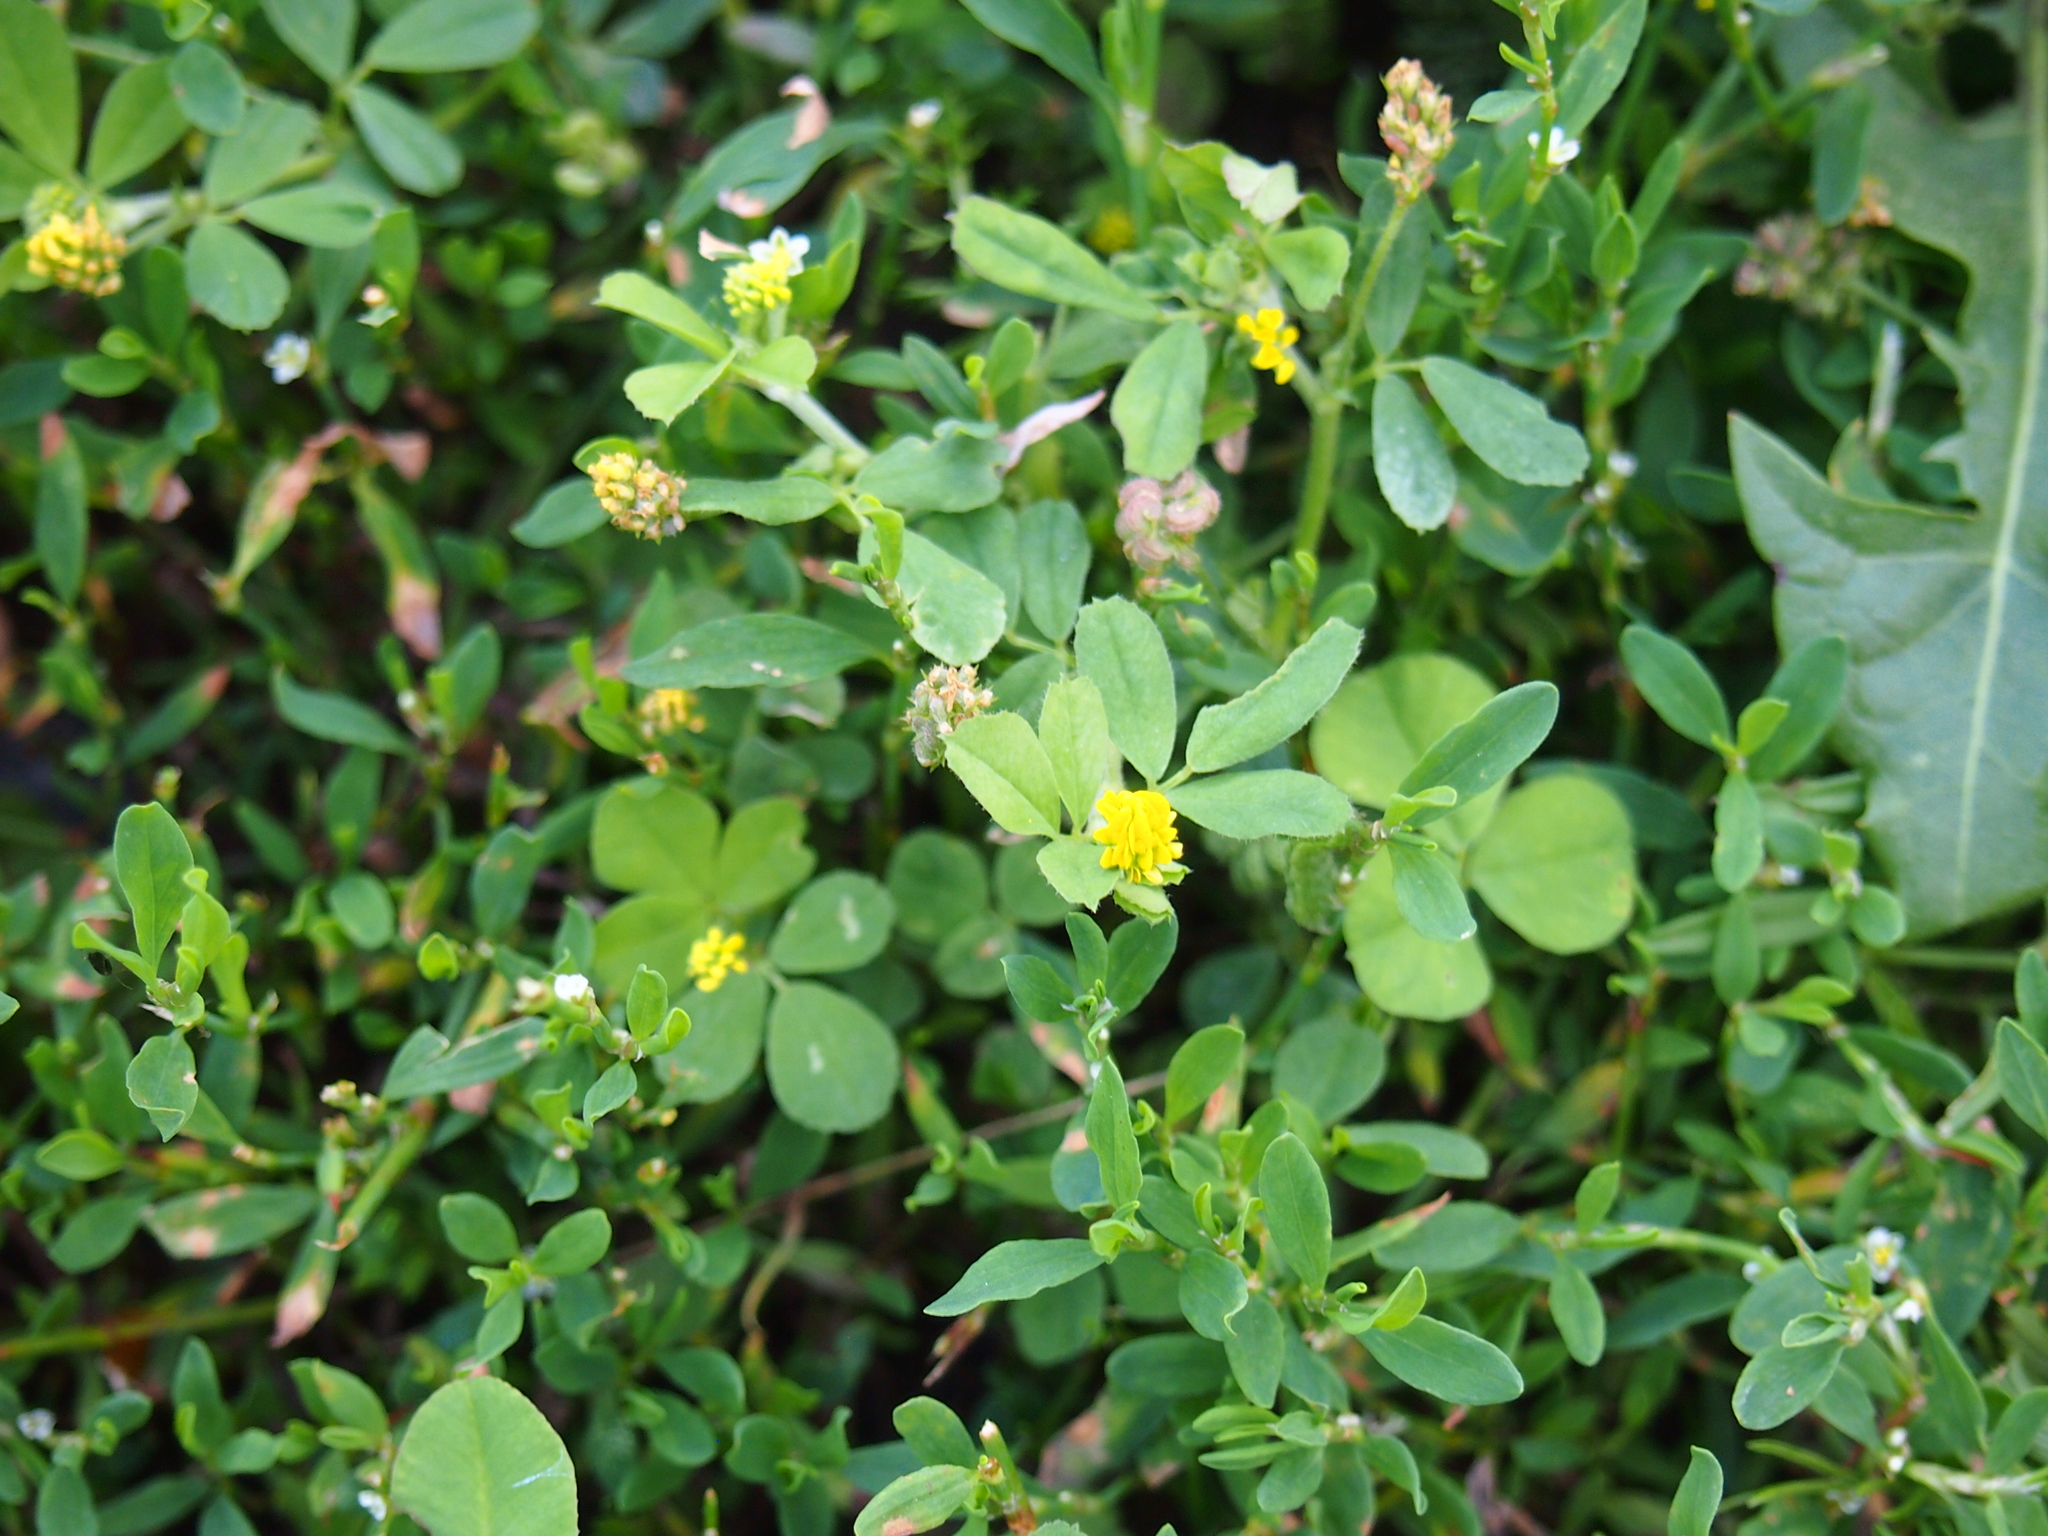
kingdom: Plantae
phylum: Tracheophyta
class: Magnoliopsida
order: Fabales
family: Fabaceae
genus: Medicago
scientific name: Medicago lupulina
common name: Black medick
